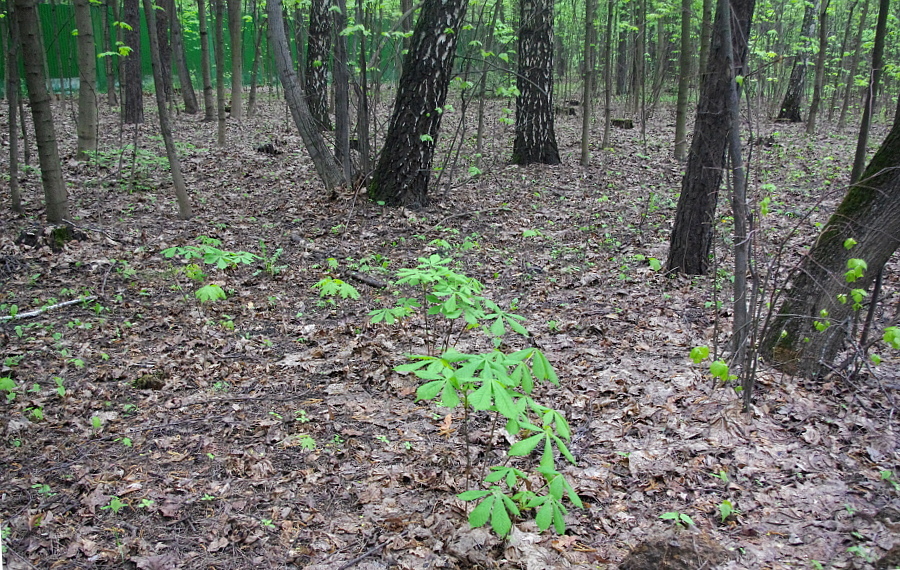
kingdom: Plantae
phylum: Tracheophyta
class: Magnoliopsida
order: Sapindales
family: Sapindaceae
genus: Aesculus
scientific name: Aesculus hippocastanum
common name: Horse-chestnut
